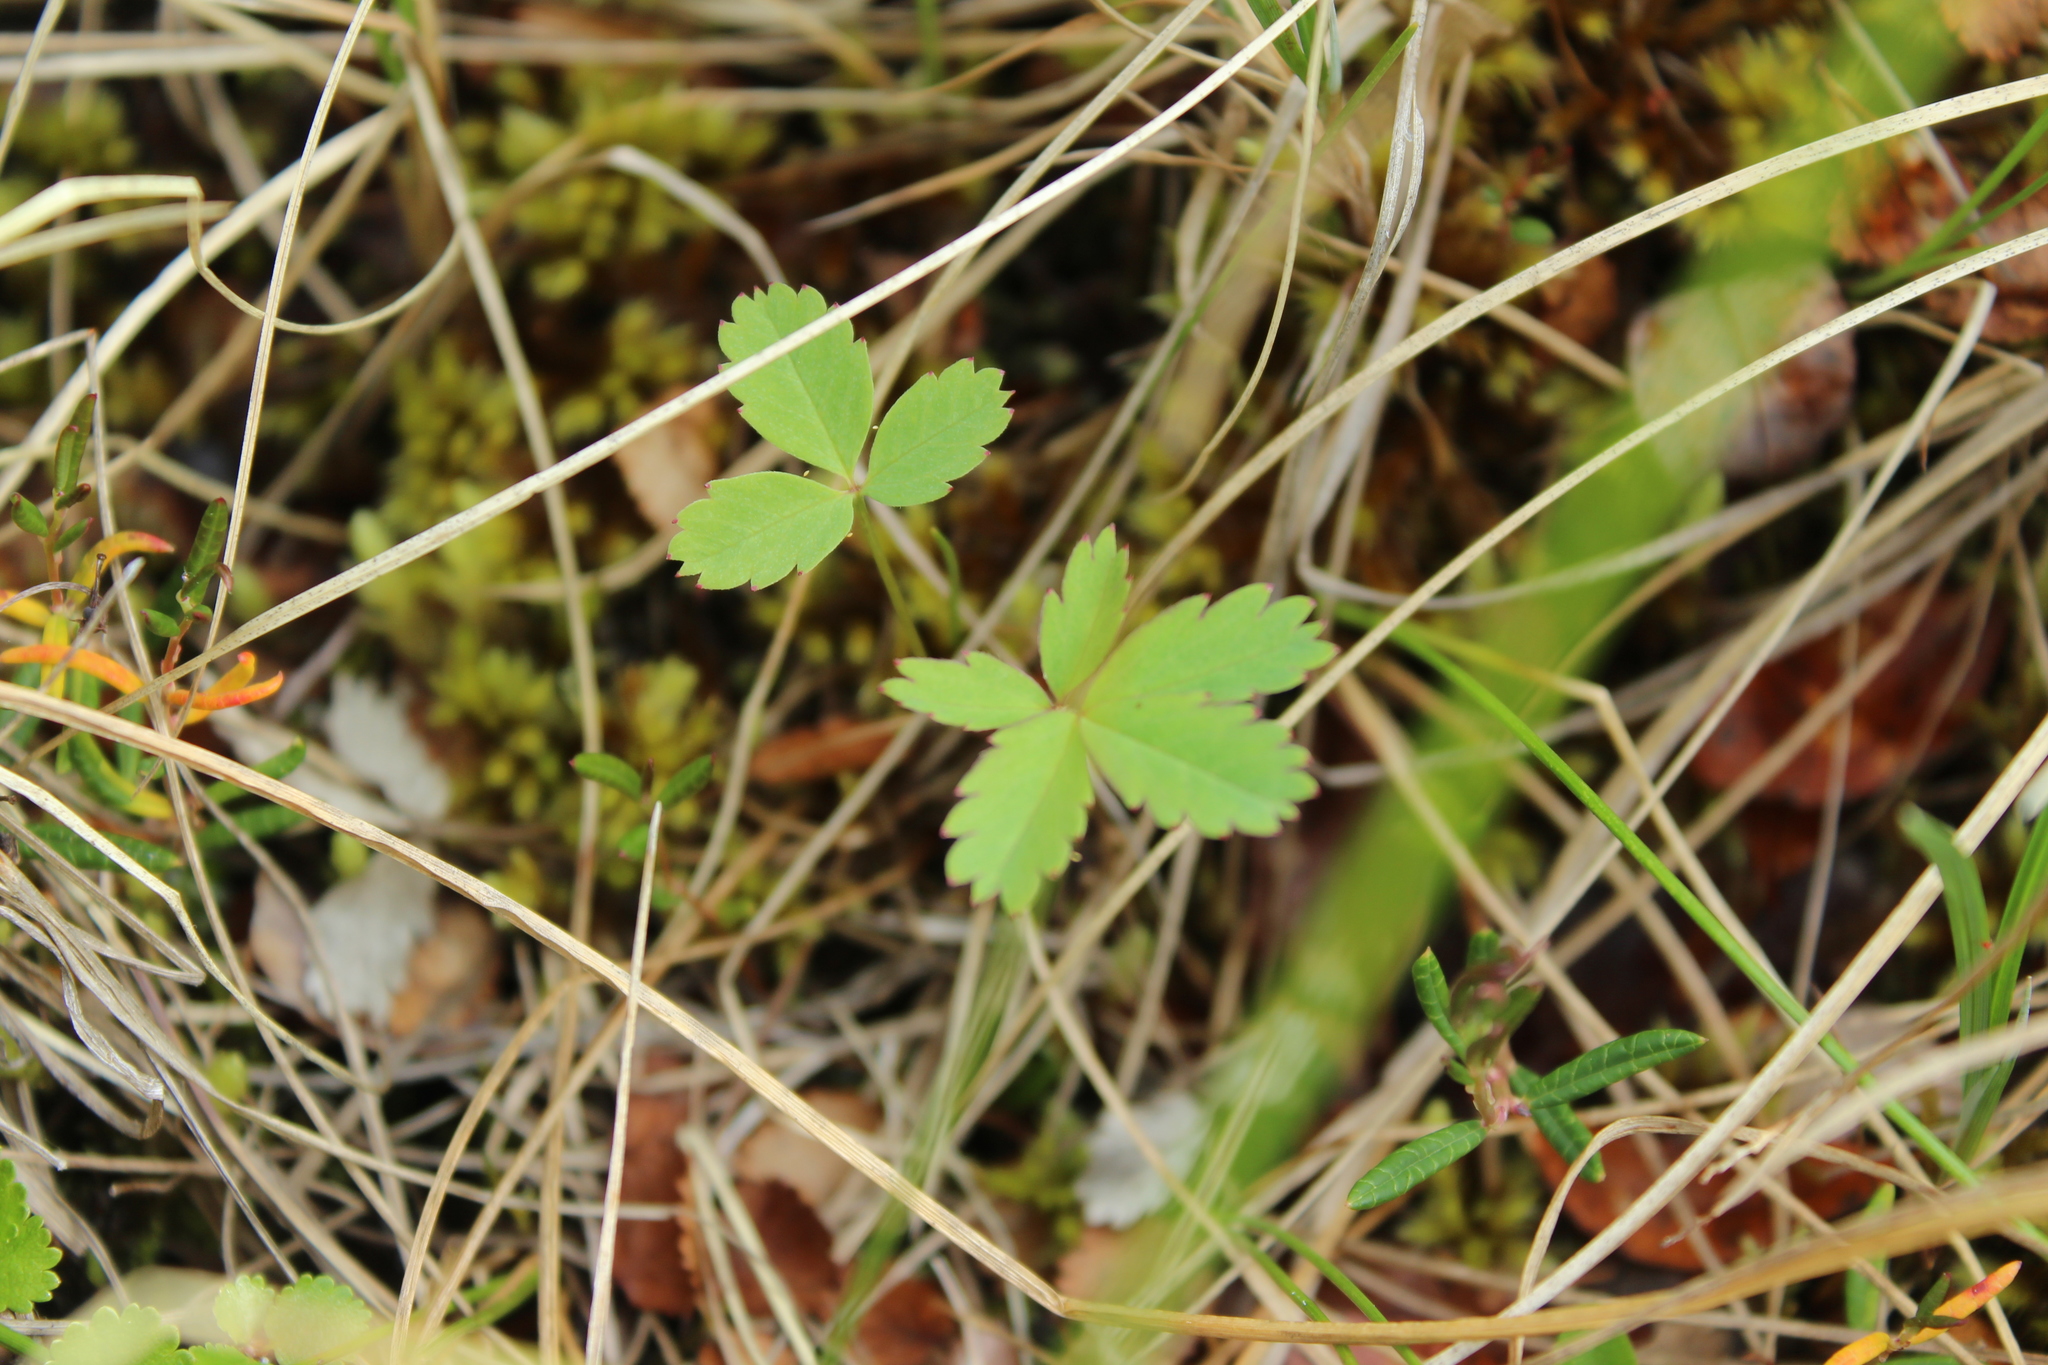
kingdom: Plantae
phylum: Tracheophyta
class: Magnoliopsida
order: Rosales
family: Rosaceae
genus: Comarum
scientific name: Comarum palustre
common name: Marsh cinquefoil
